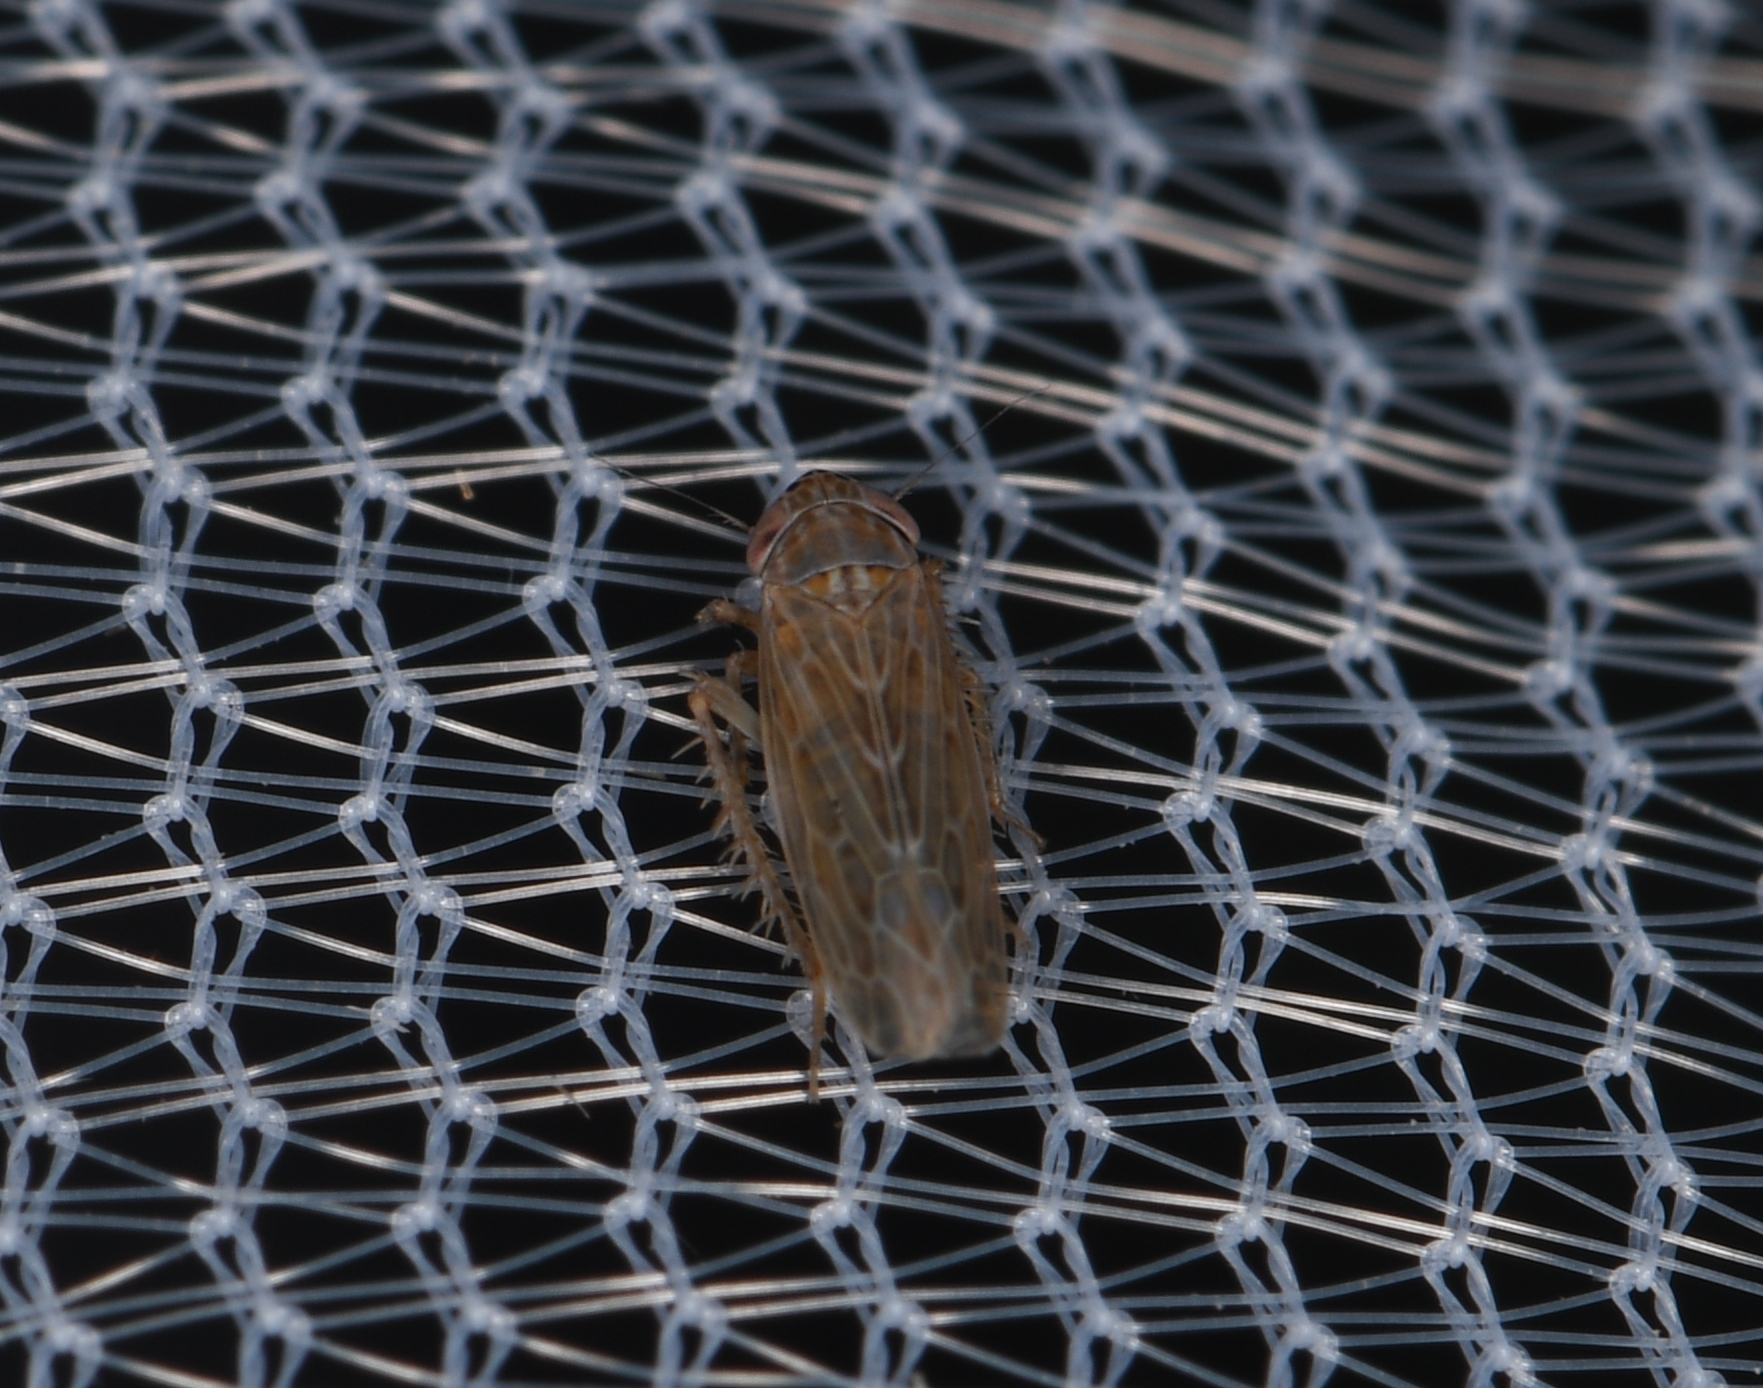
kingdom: Animalia
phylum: Arthropoda
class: Insecta
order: Hemiptera
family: Cicadellidae
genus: Graminella
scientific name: Graminella sonora
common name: Lesser lawn leafhopper
